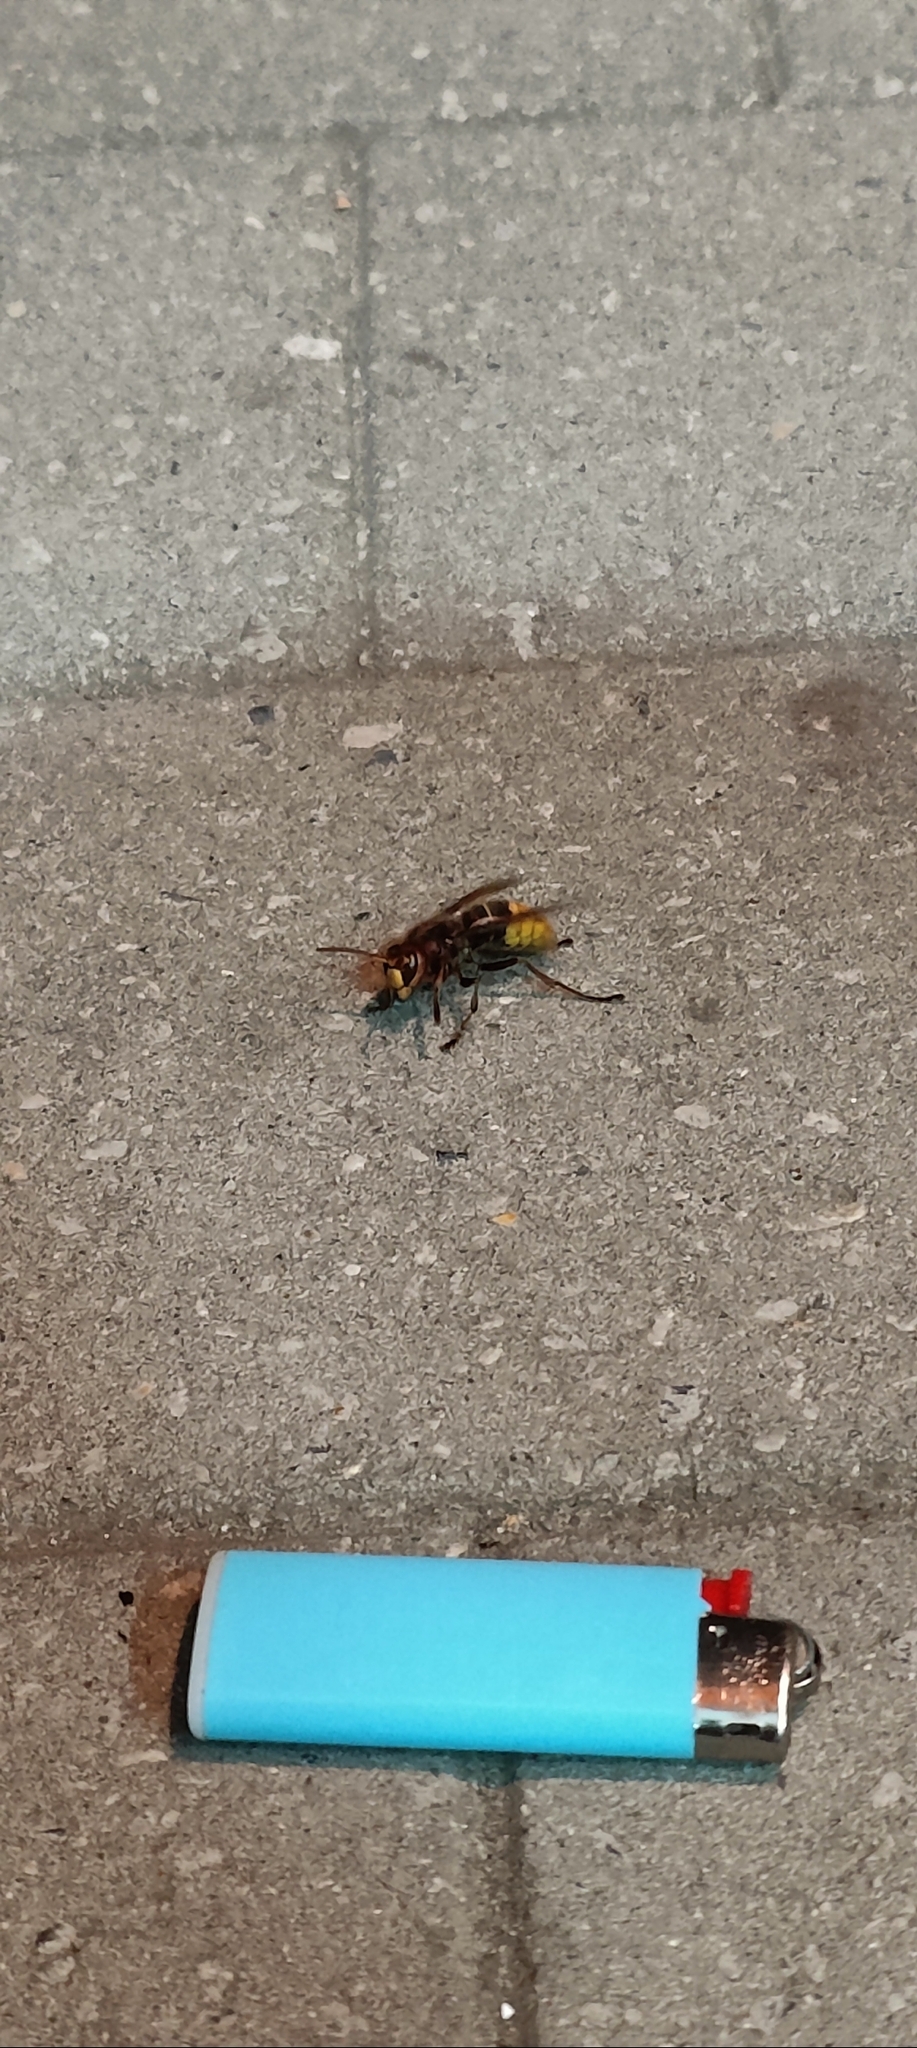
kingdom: Animalia
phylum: Arthropoda
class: Insecta
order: Hymenoptera
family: Vespidae
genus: Vespa
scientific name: Vespa crabro
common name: Hornet
